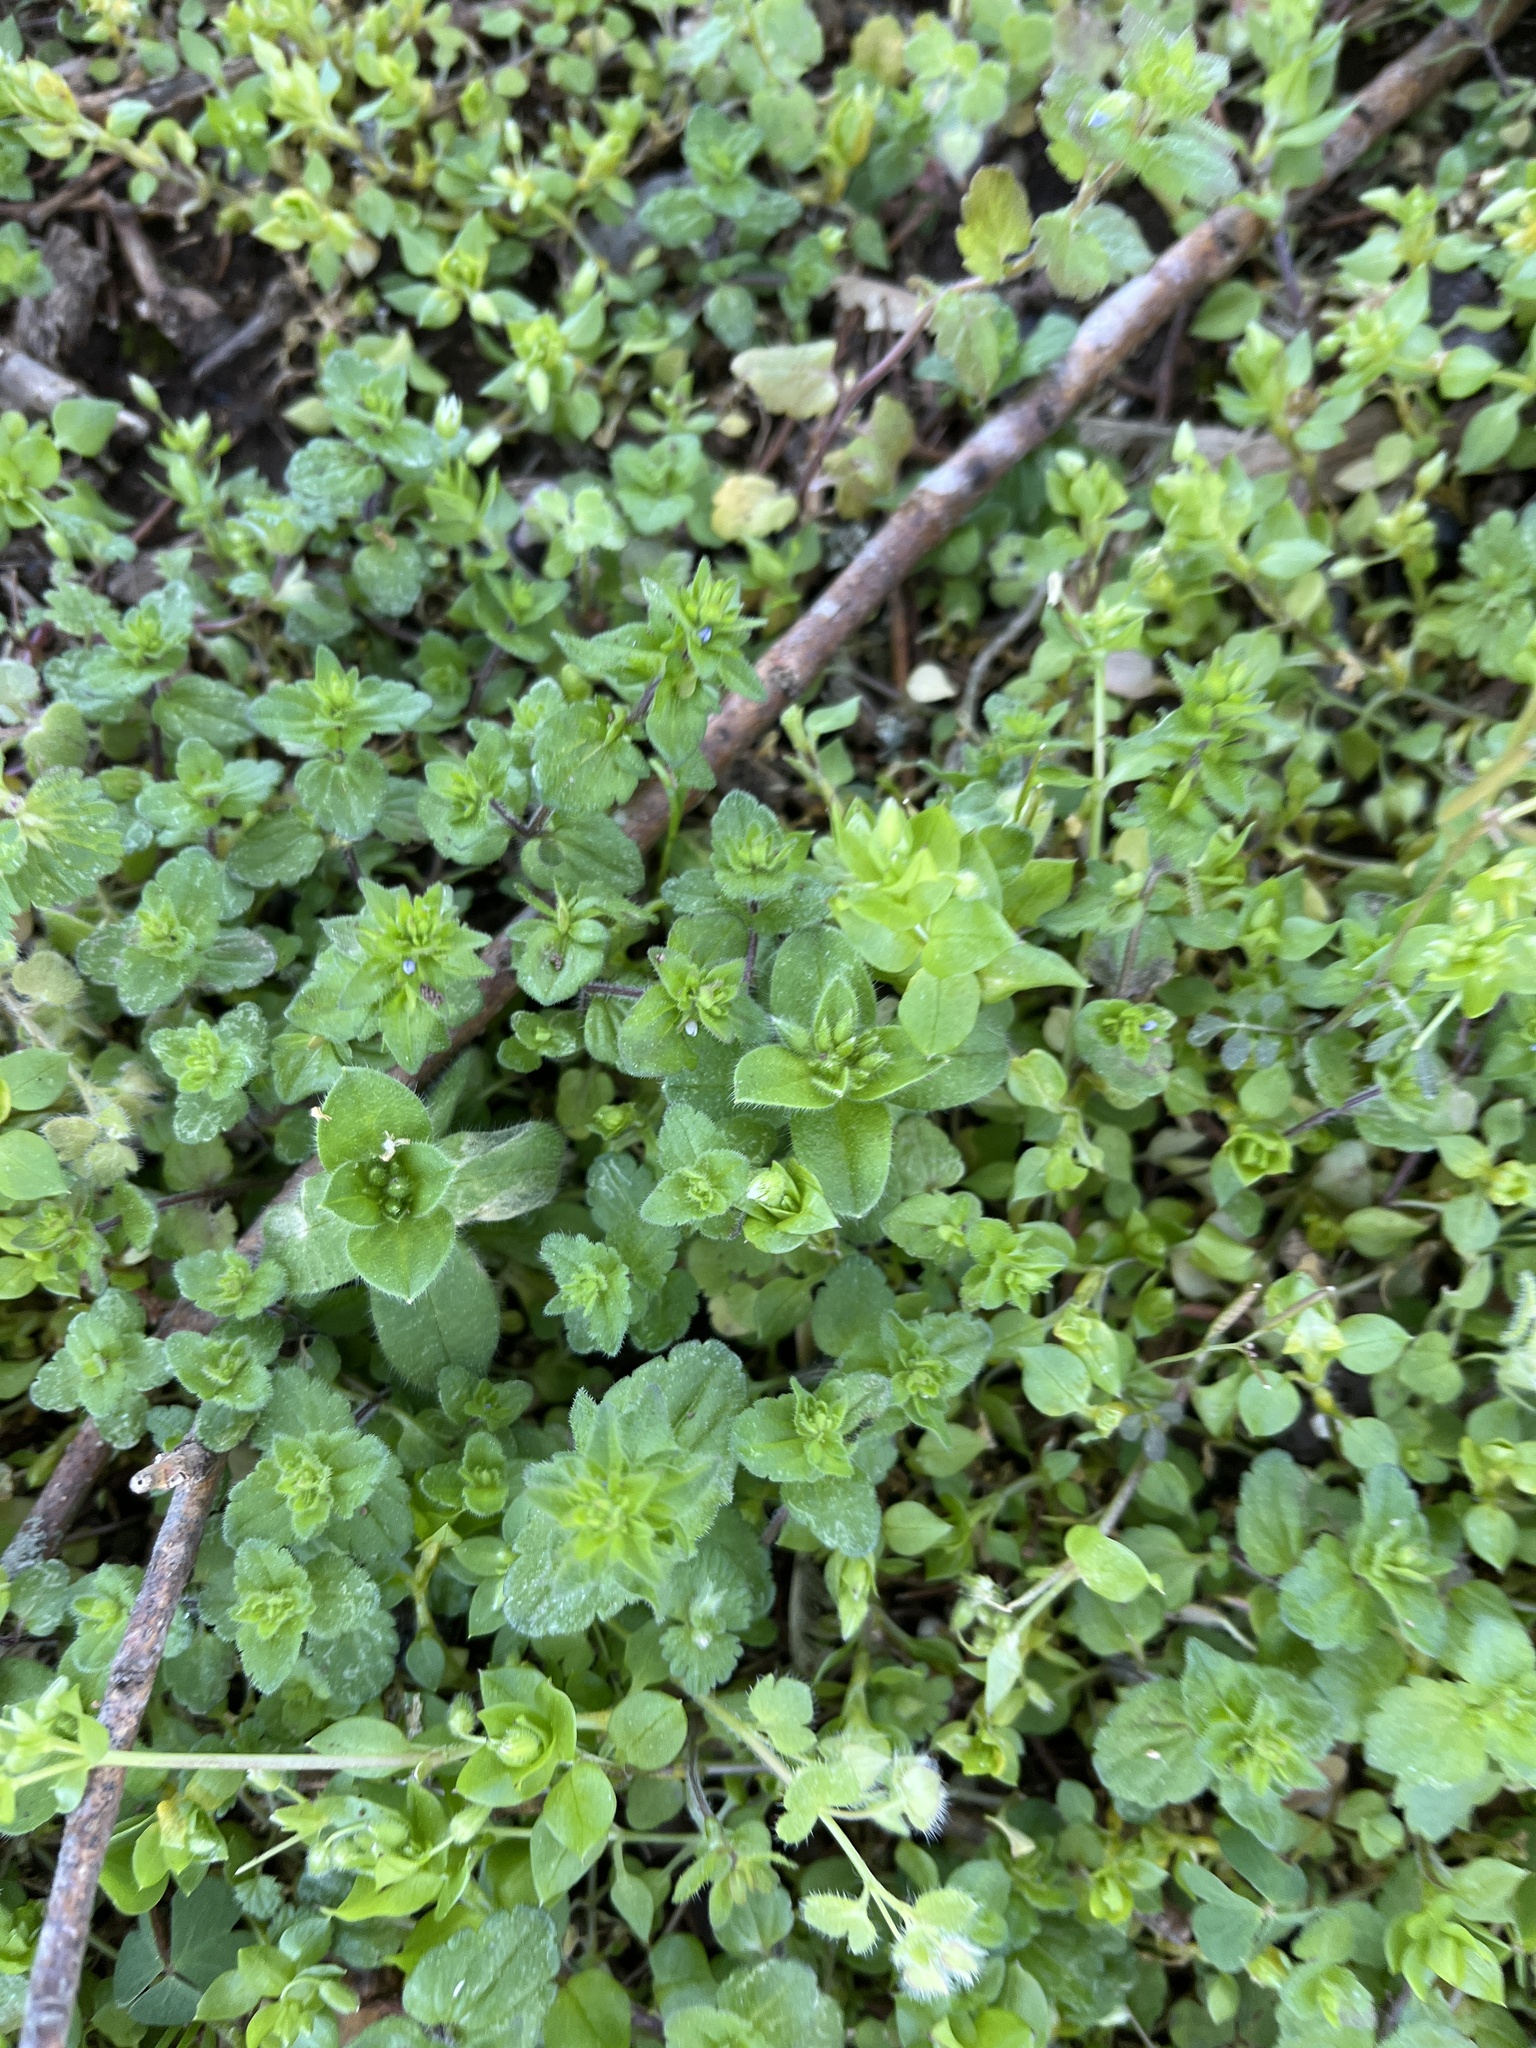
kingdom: Plantae
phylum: Tracheophyta
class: Magnoliopsida
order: Lamiales
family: Plantaginaceae
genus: Veronica
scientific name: Veronica arvensis
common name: Corn speedwell
